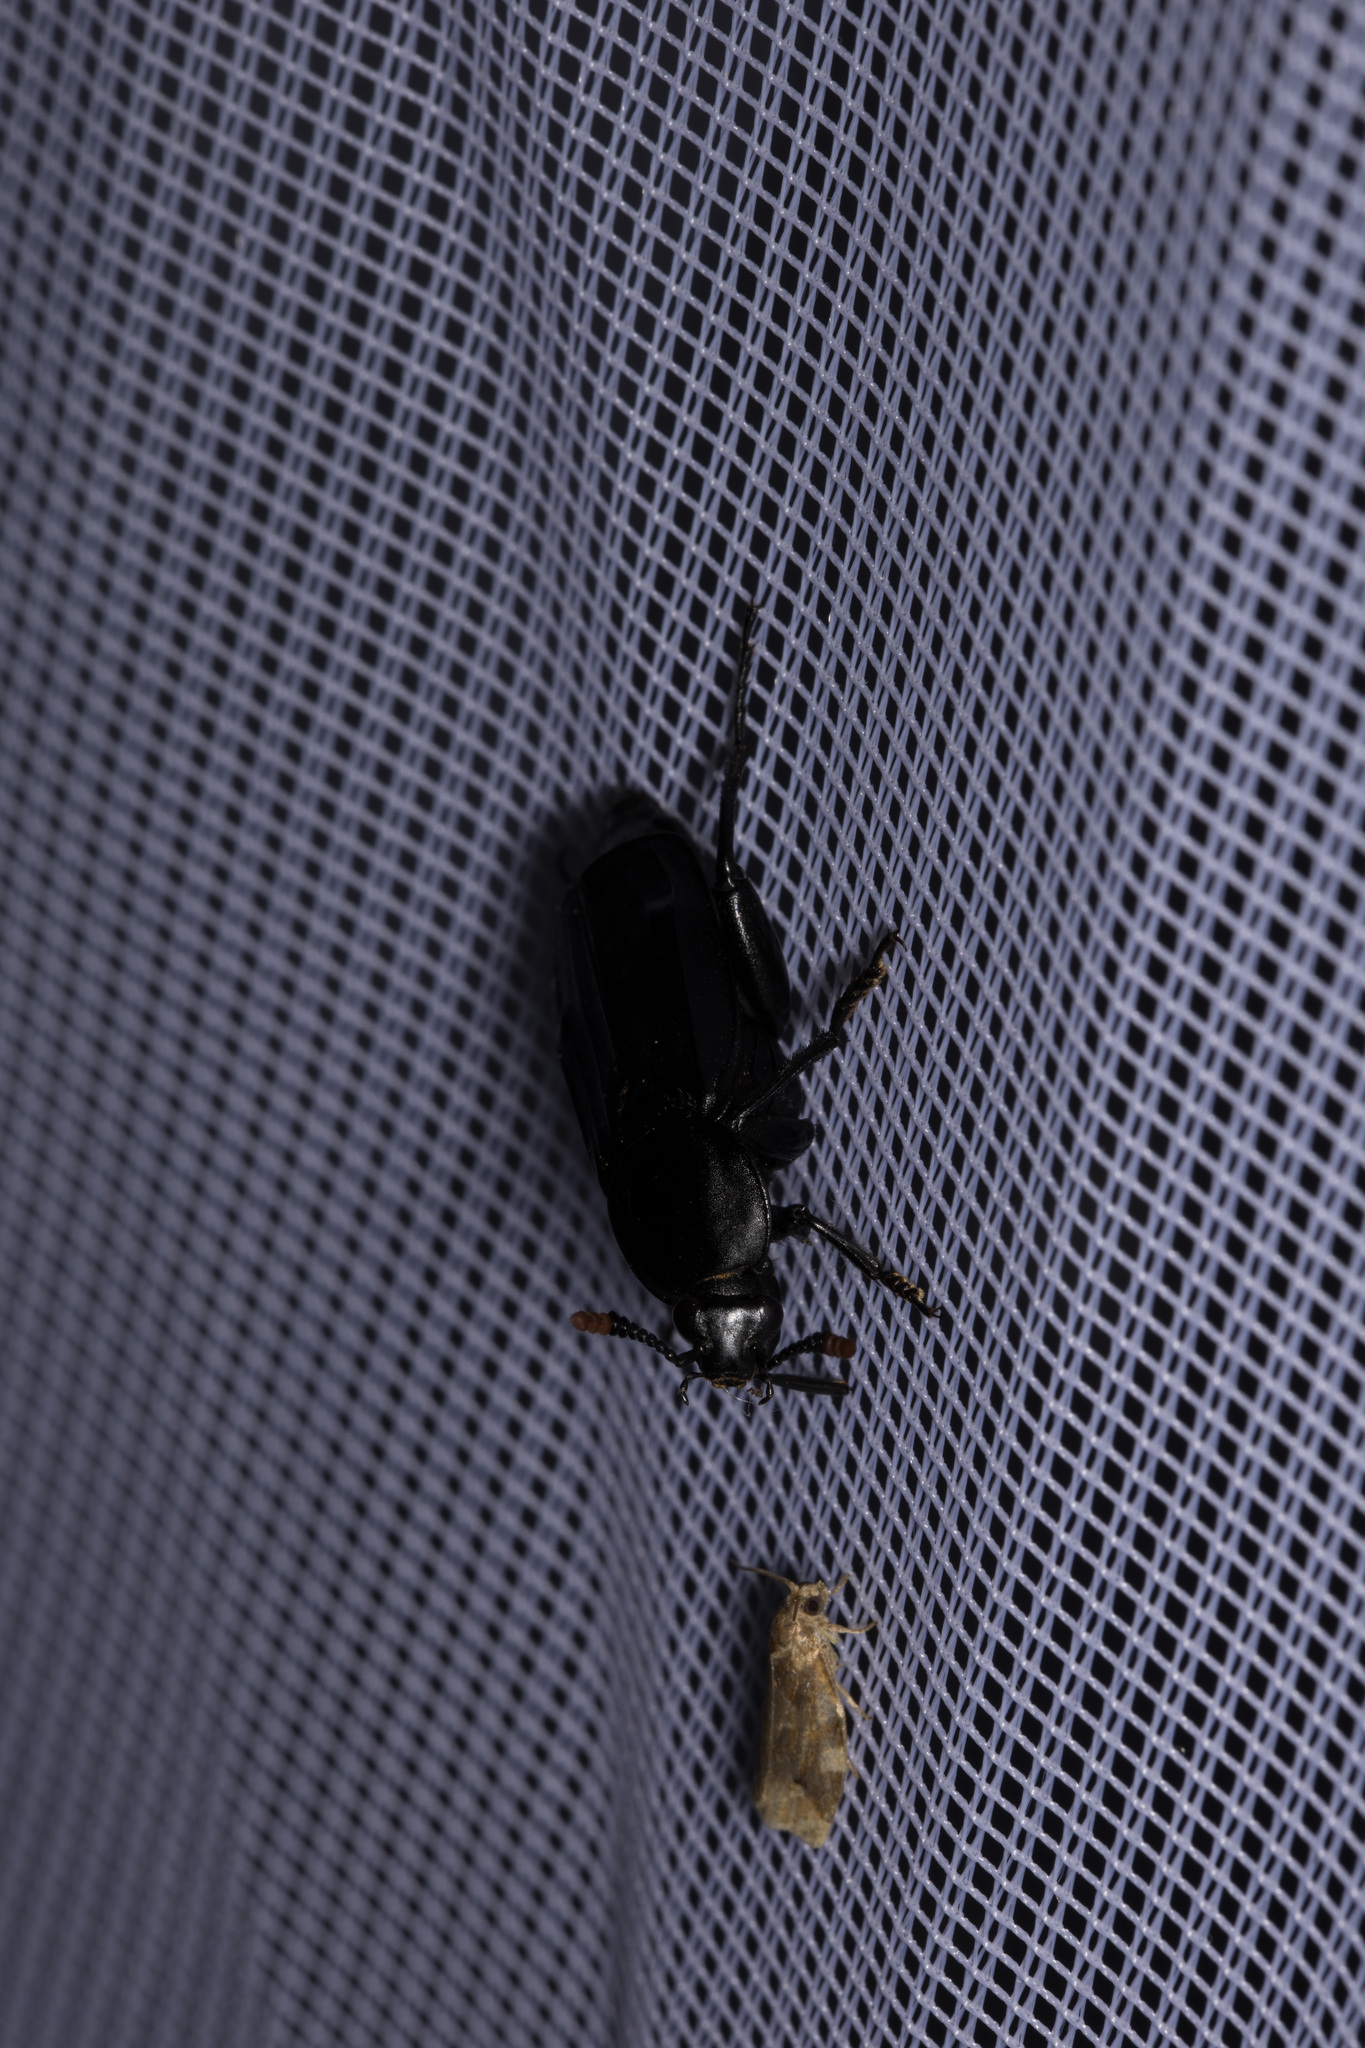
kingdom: Animalia
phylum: Arthropoda
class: Insecta
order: Coleoptera
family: Staphylinidae
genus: Necrodes
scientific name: Necrodes littoralis
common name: Shore sexton beetle
